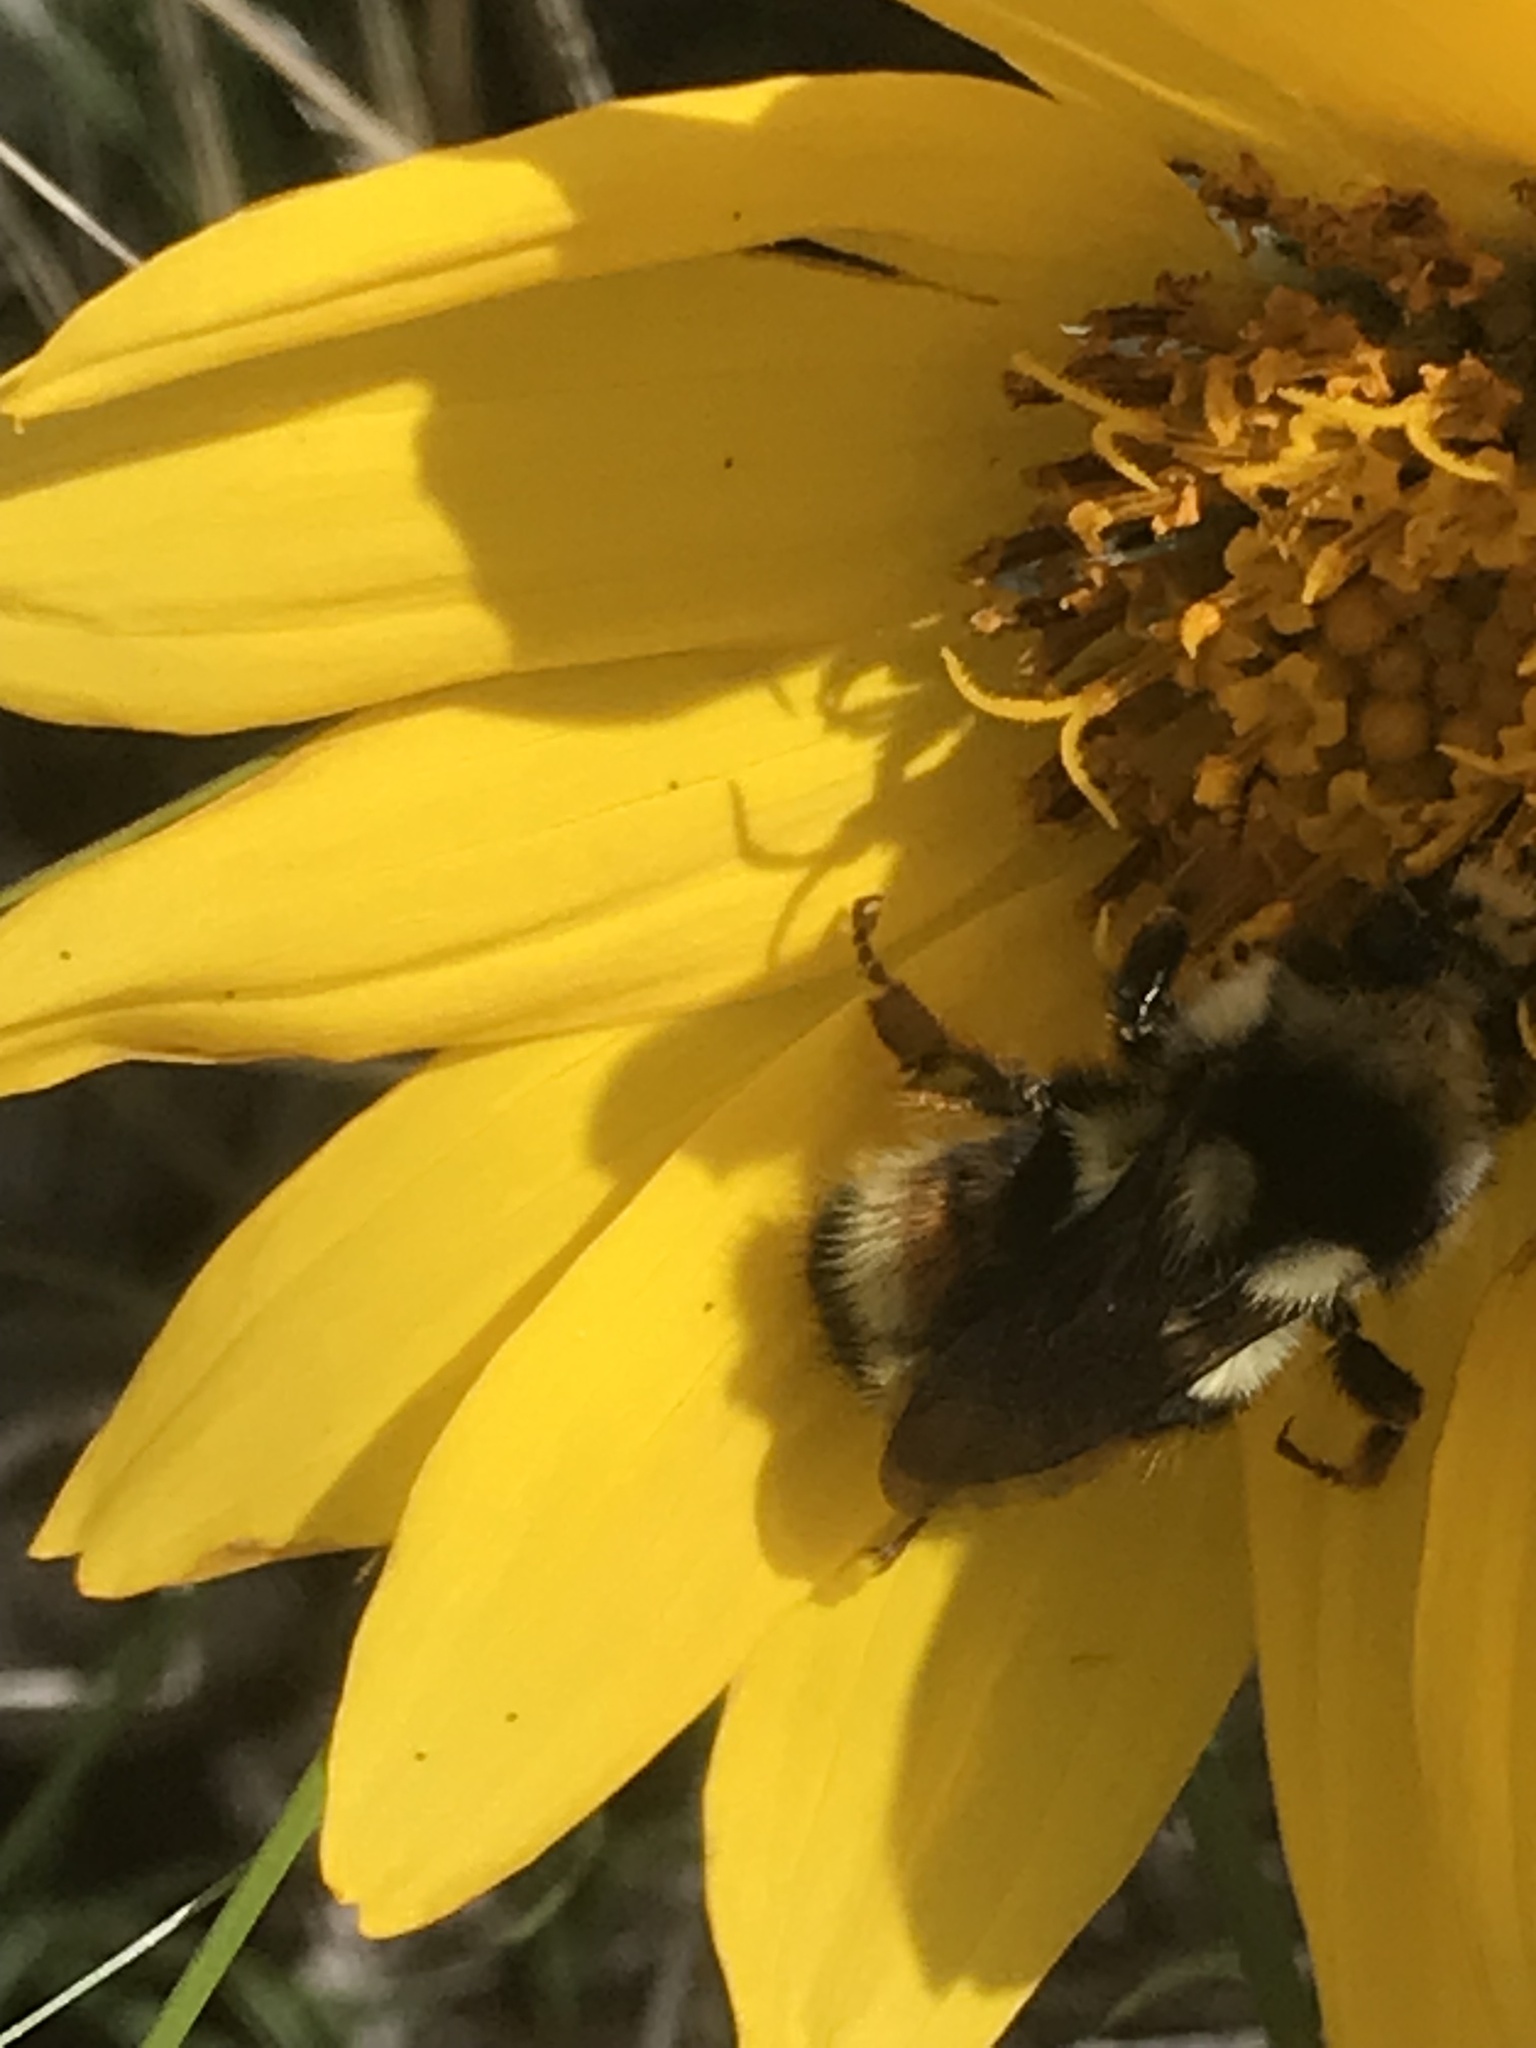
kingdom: Animalia
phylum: Arthropoda
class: Insecta
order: Hymenoptera
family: Apidae
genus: Bombus
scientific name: Bombus vancouverensis
